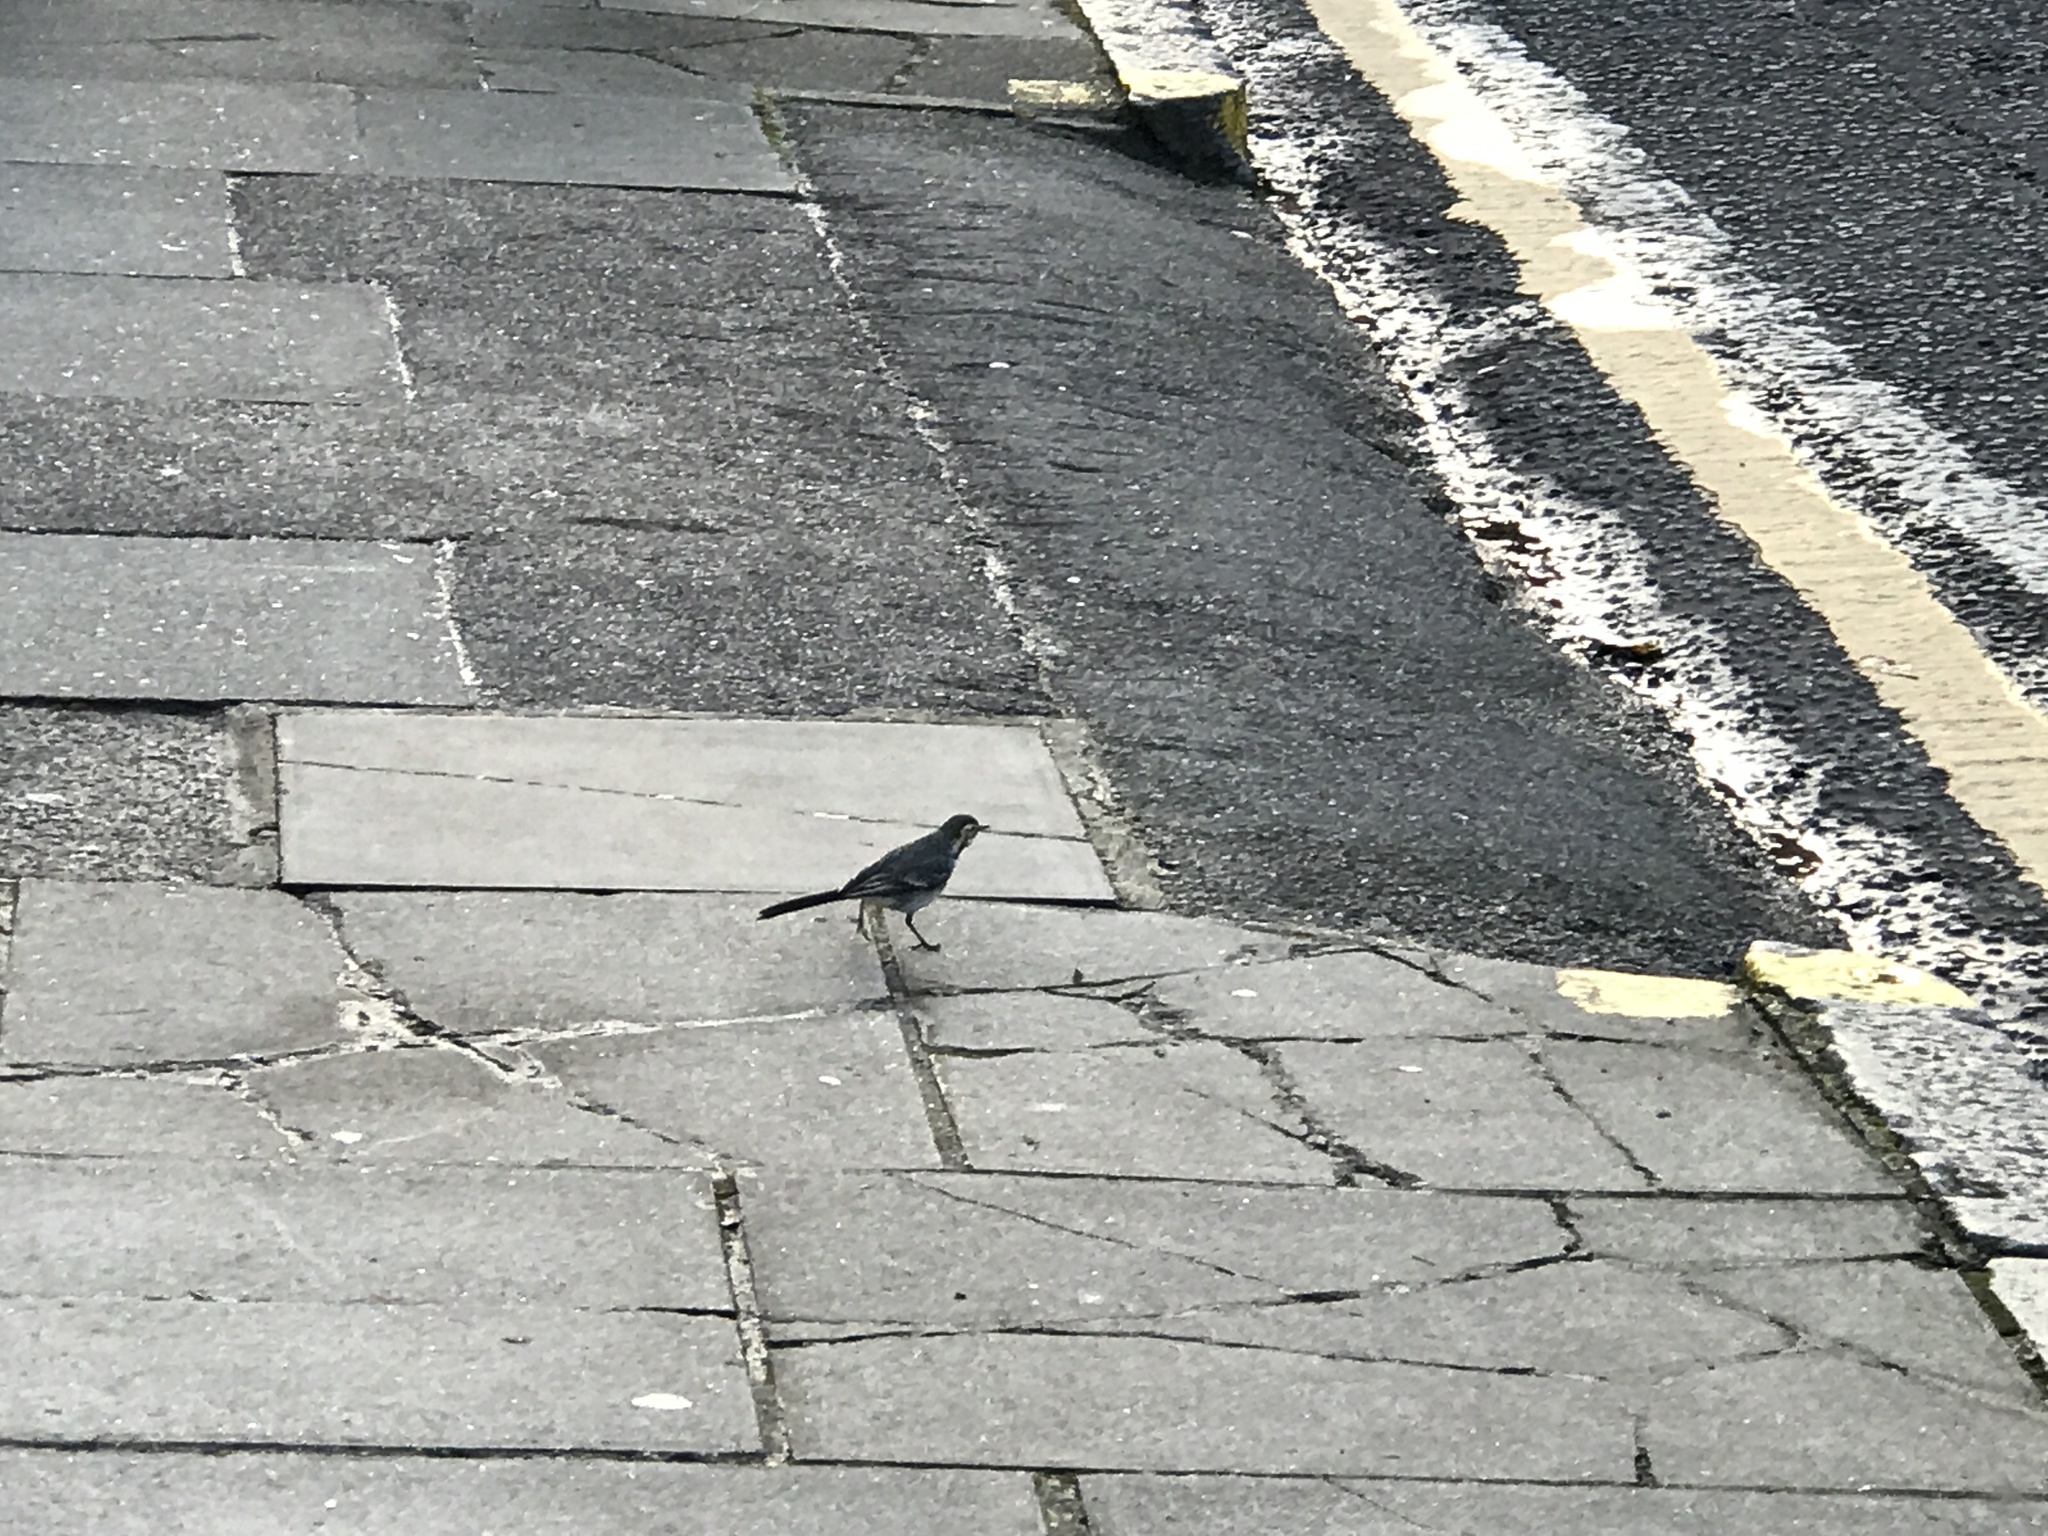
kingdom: Animalia
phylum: Chordata
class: Aves
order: Passeriformes
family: Motacillidae
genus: Motacilla
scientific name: Motacilla alba
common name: White wagtail
